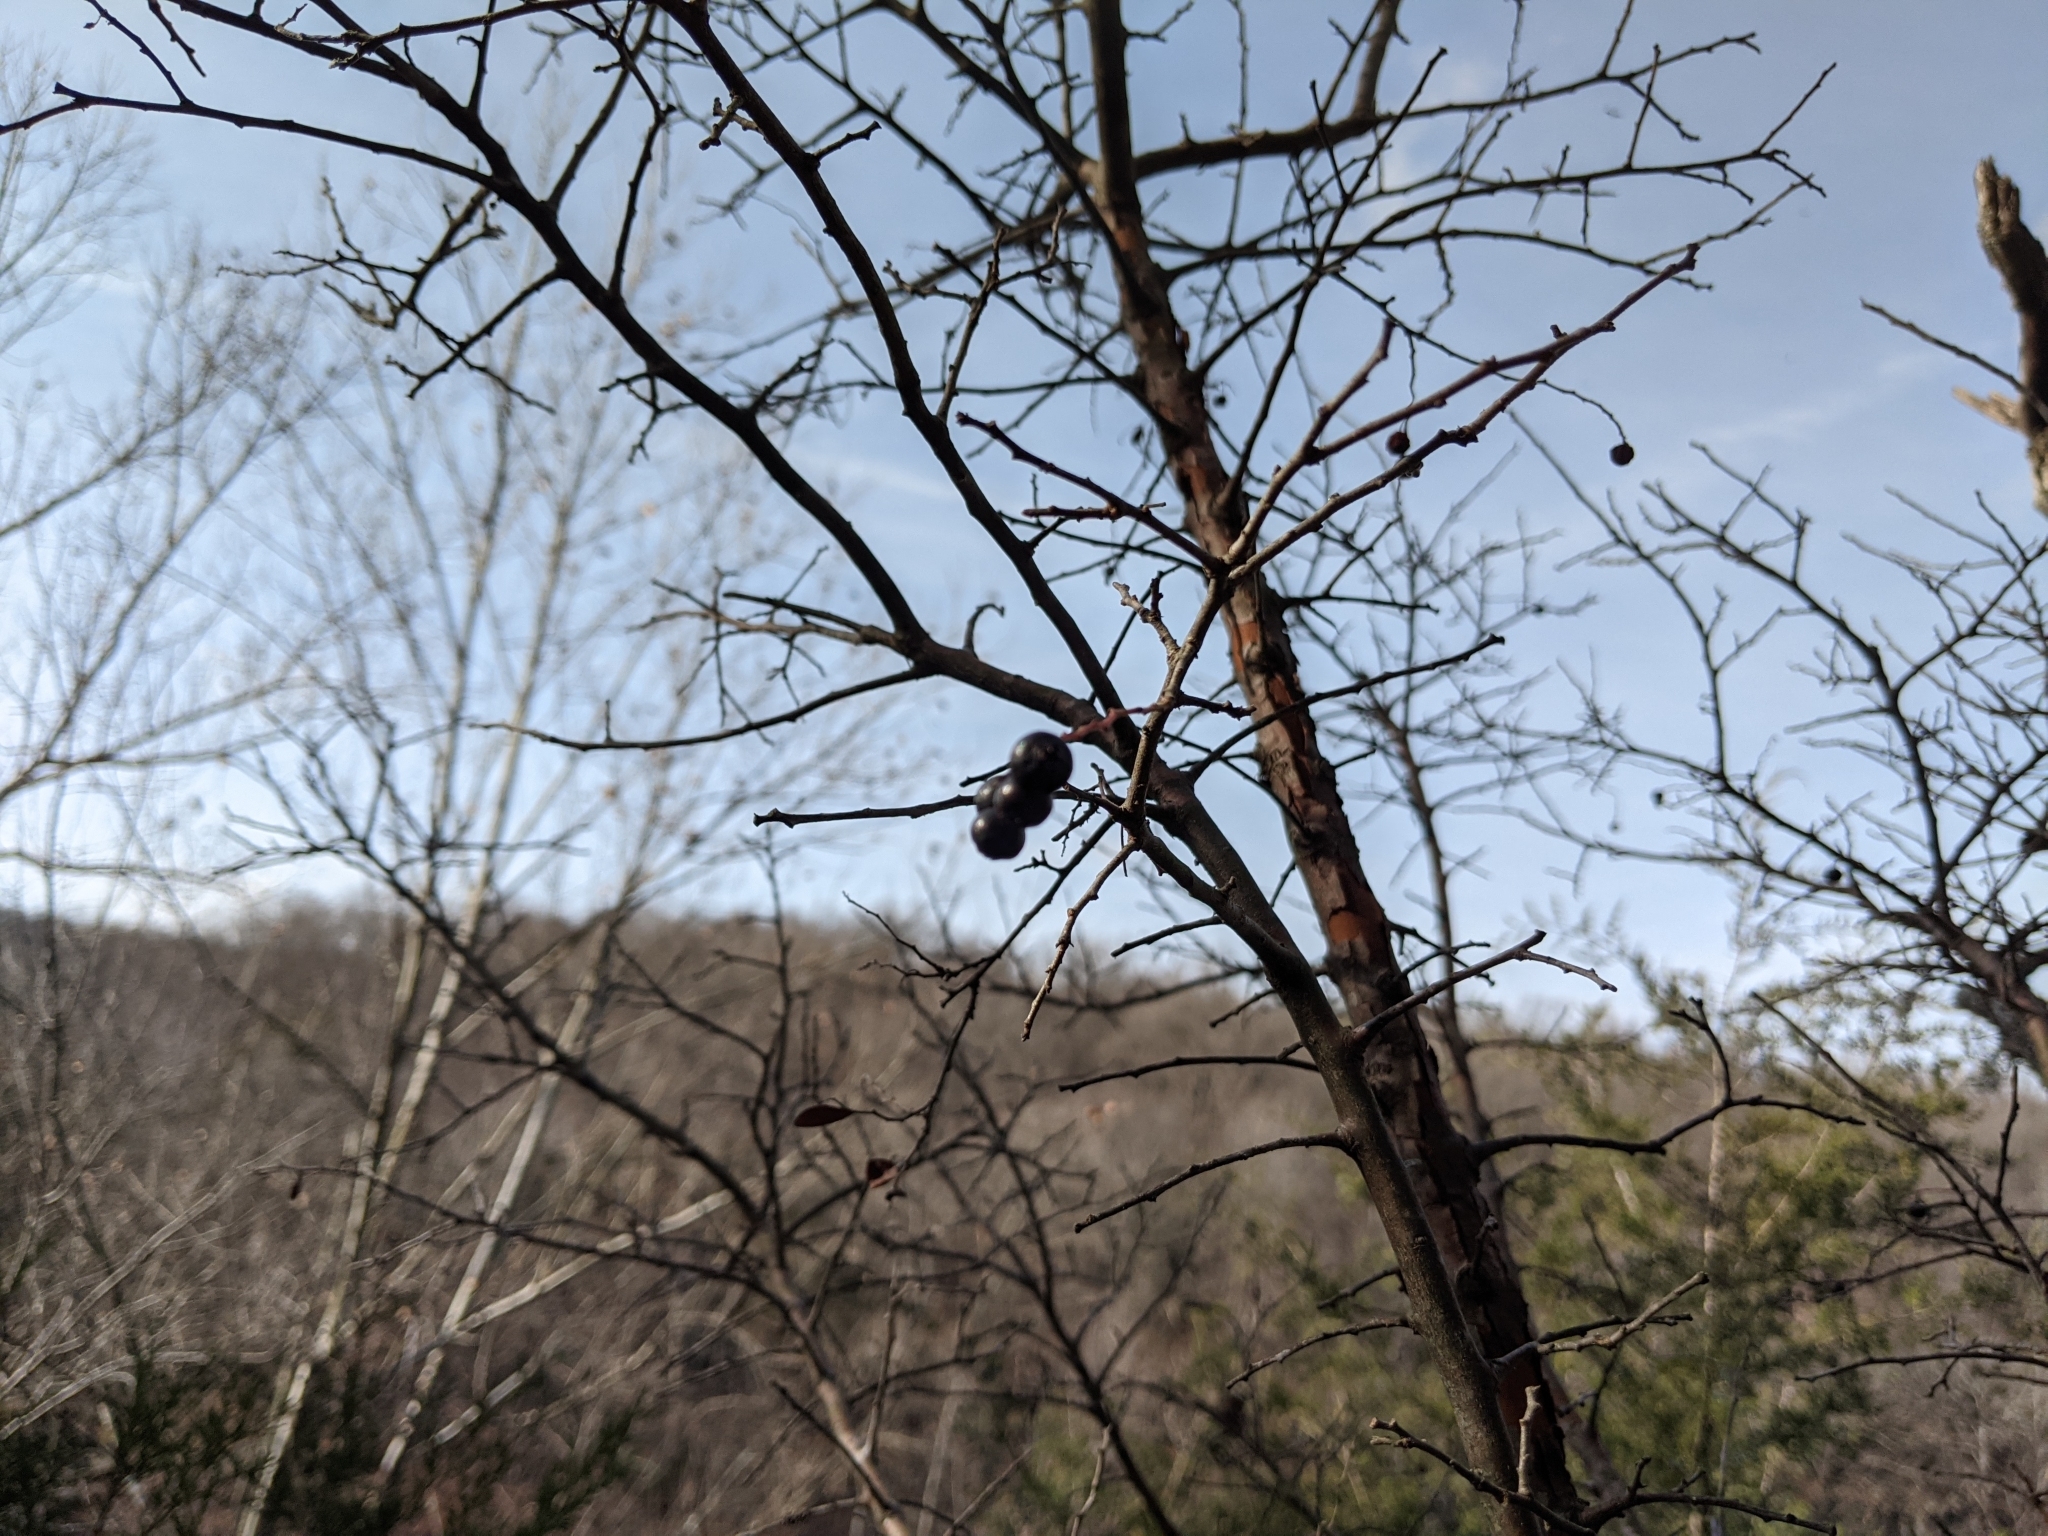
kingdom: Plantae
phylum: Tracheophyta
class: Magnoliopsida
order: Ericales
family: Ericaceae
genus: Vaccinium
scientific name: Vaccinium arboreum
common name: Farkleberry
